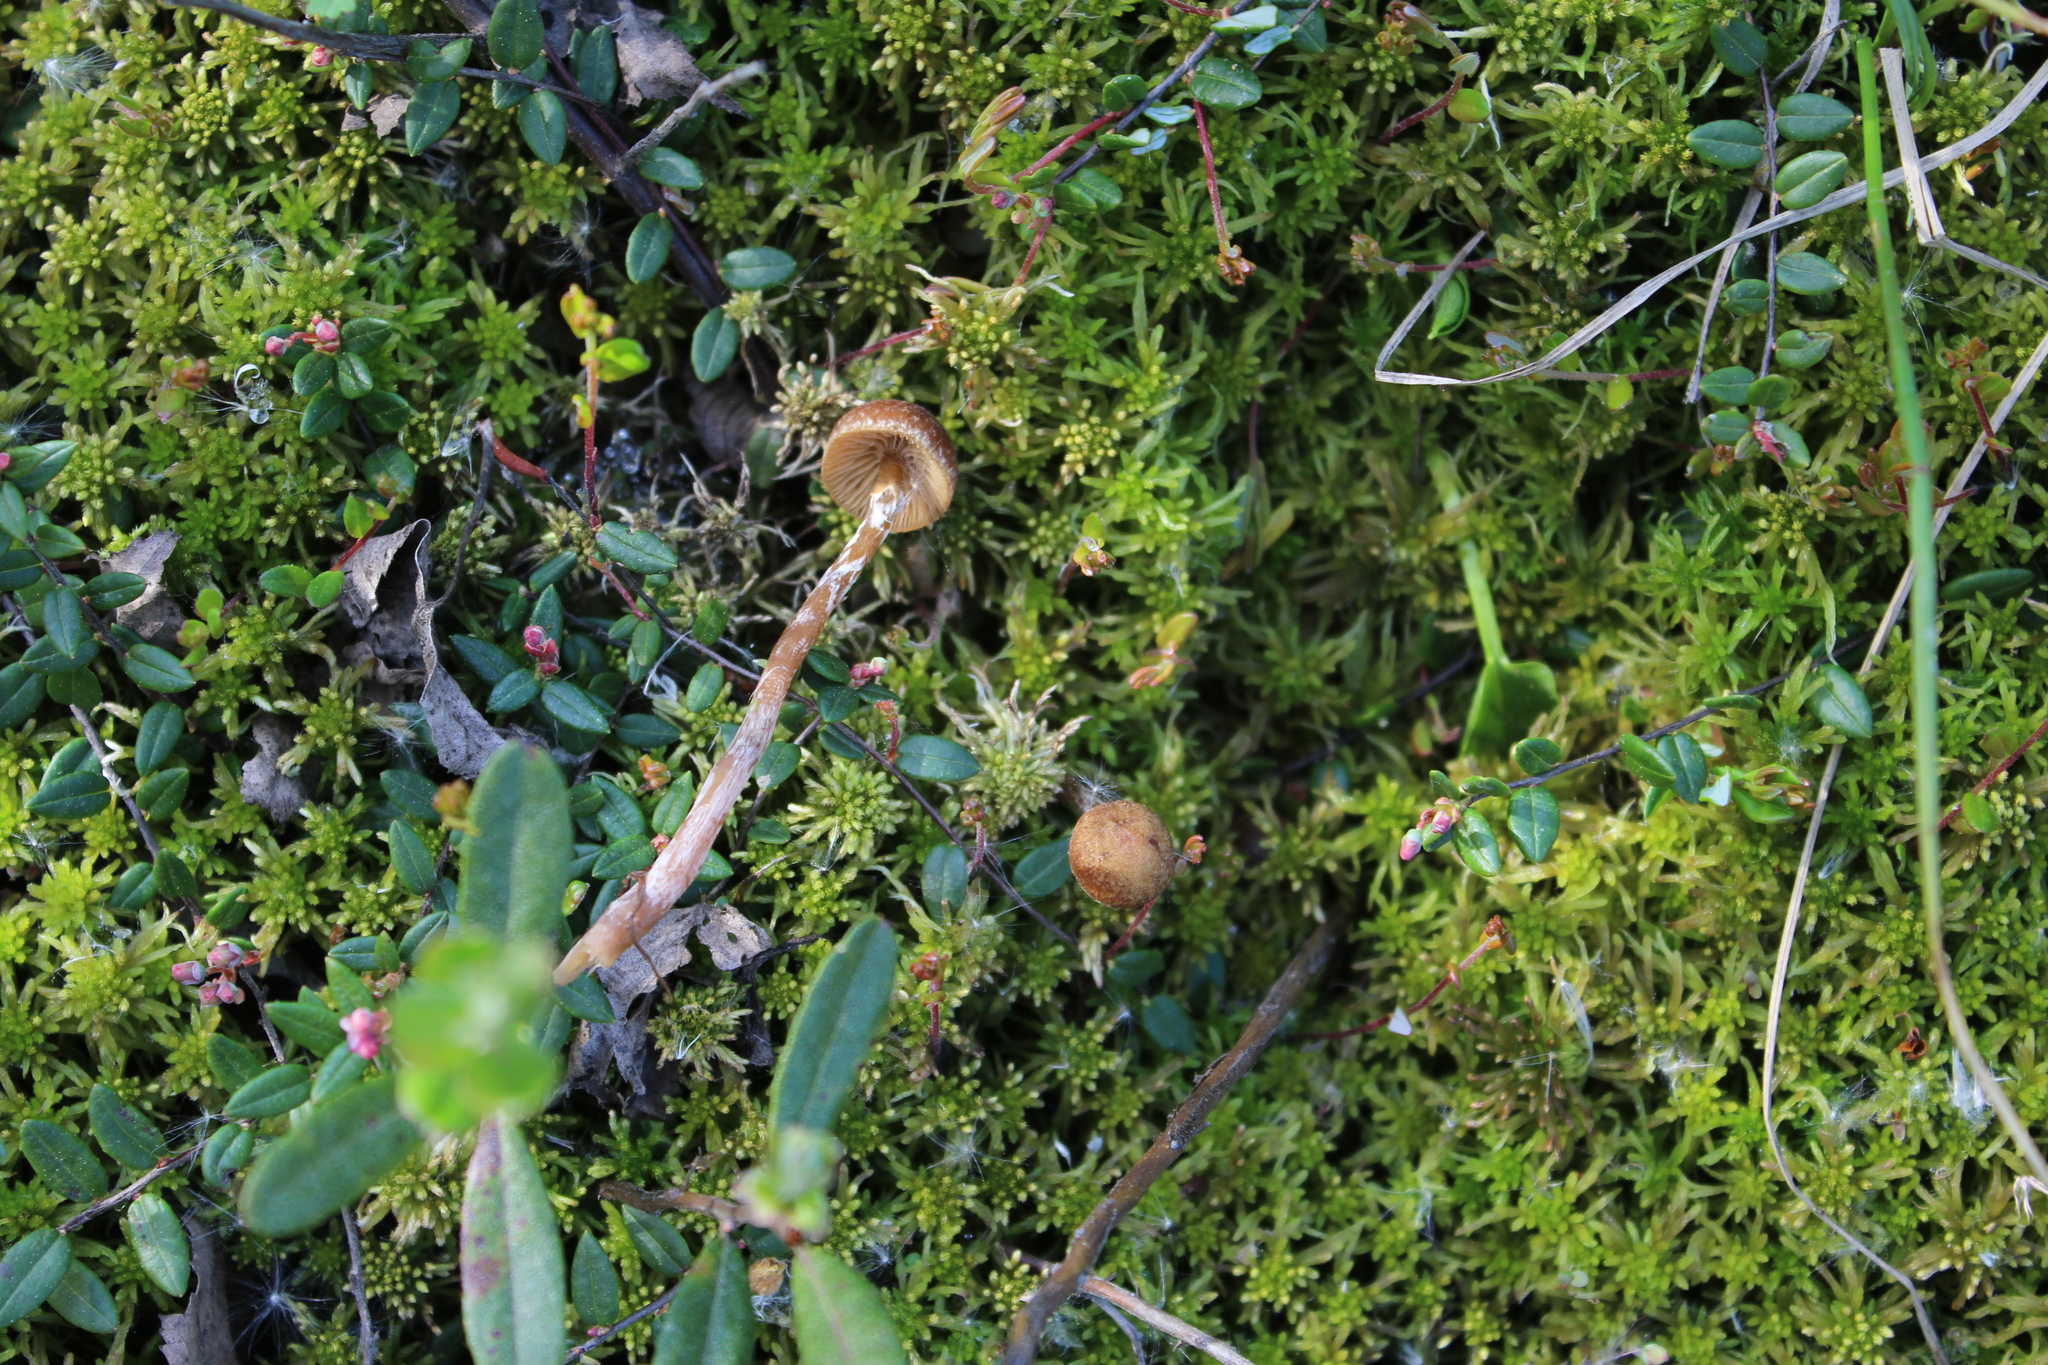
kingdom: Fungi
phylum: Basidiomycota
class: Agaricomycetes
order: Agaricales
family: Hymenogastraceae
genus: Galerina
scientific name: Galerina paludosa
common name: Bog bell
